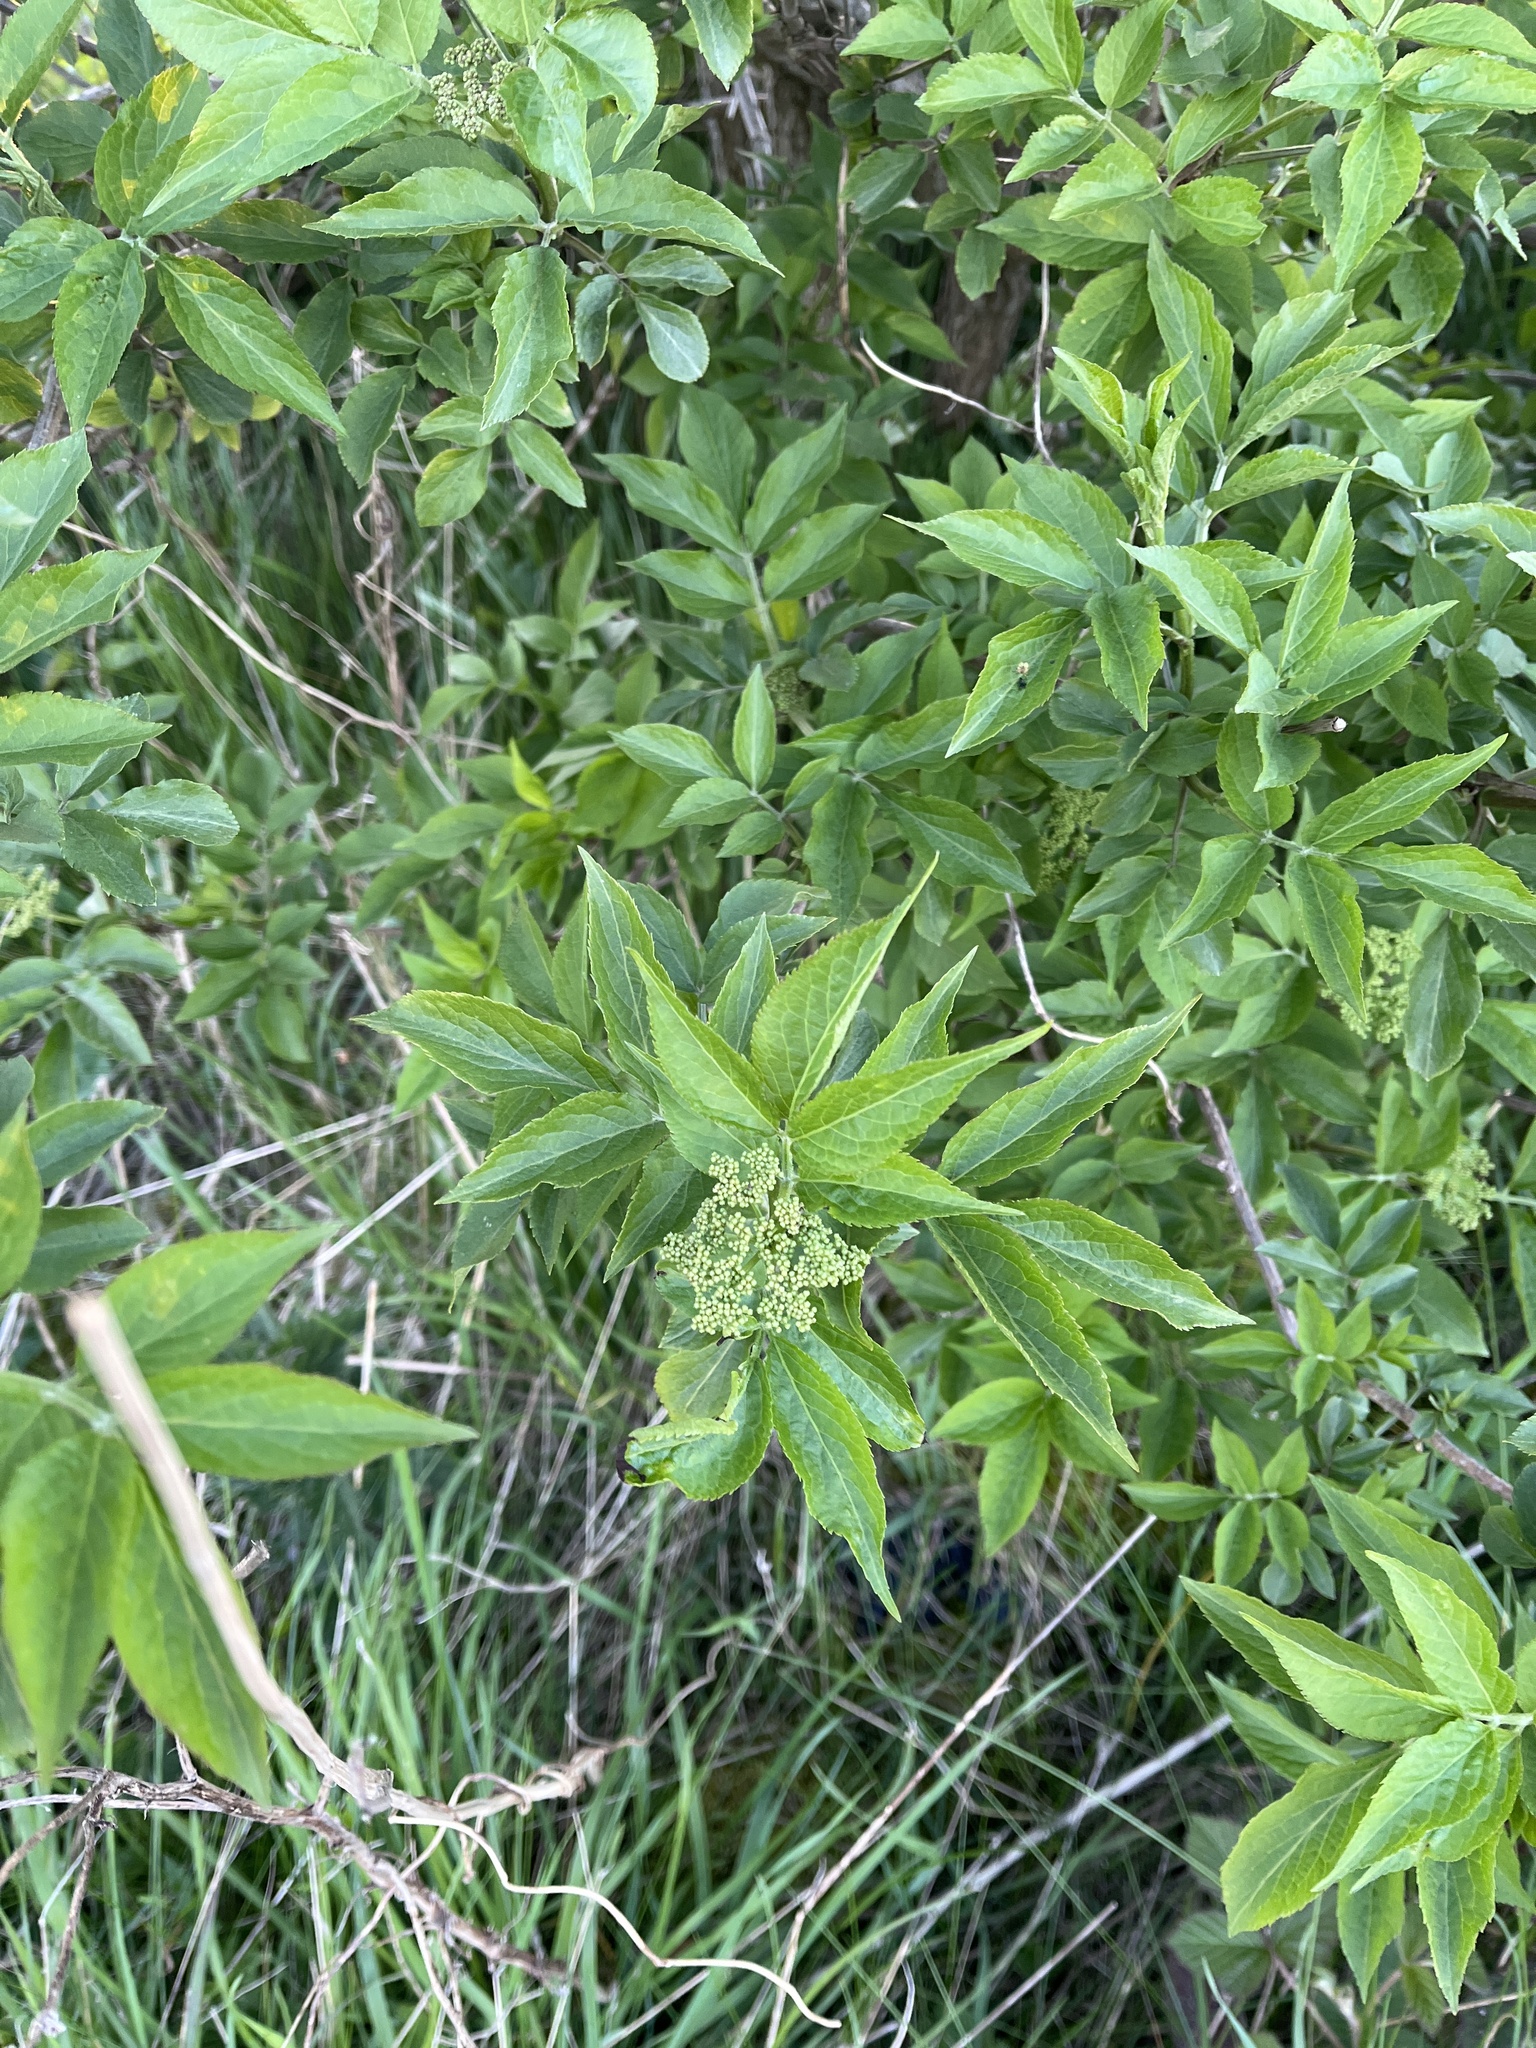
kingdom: Plantae
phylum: Tracheophyta
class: Magnoliopsida
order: Dipsacales
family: Viburnaceae
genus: Sambucus
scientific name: Sambucus nigra
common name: Elder
